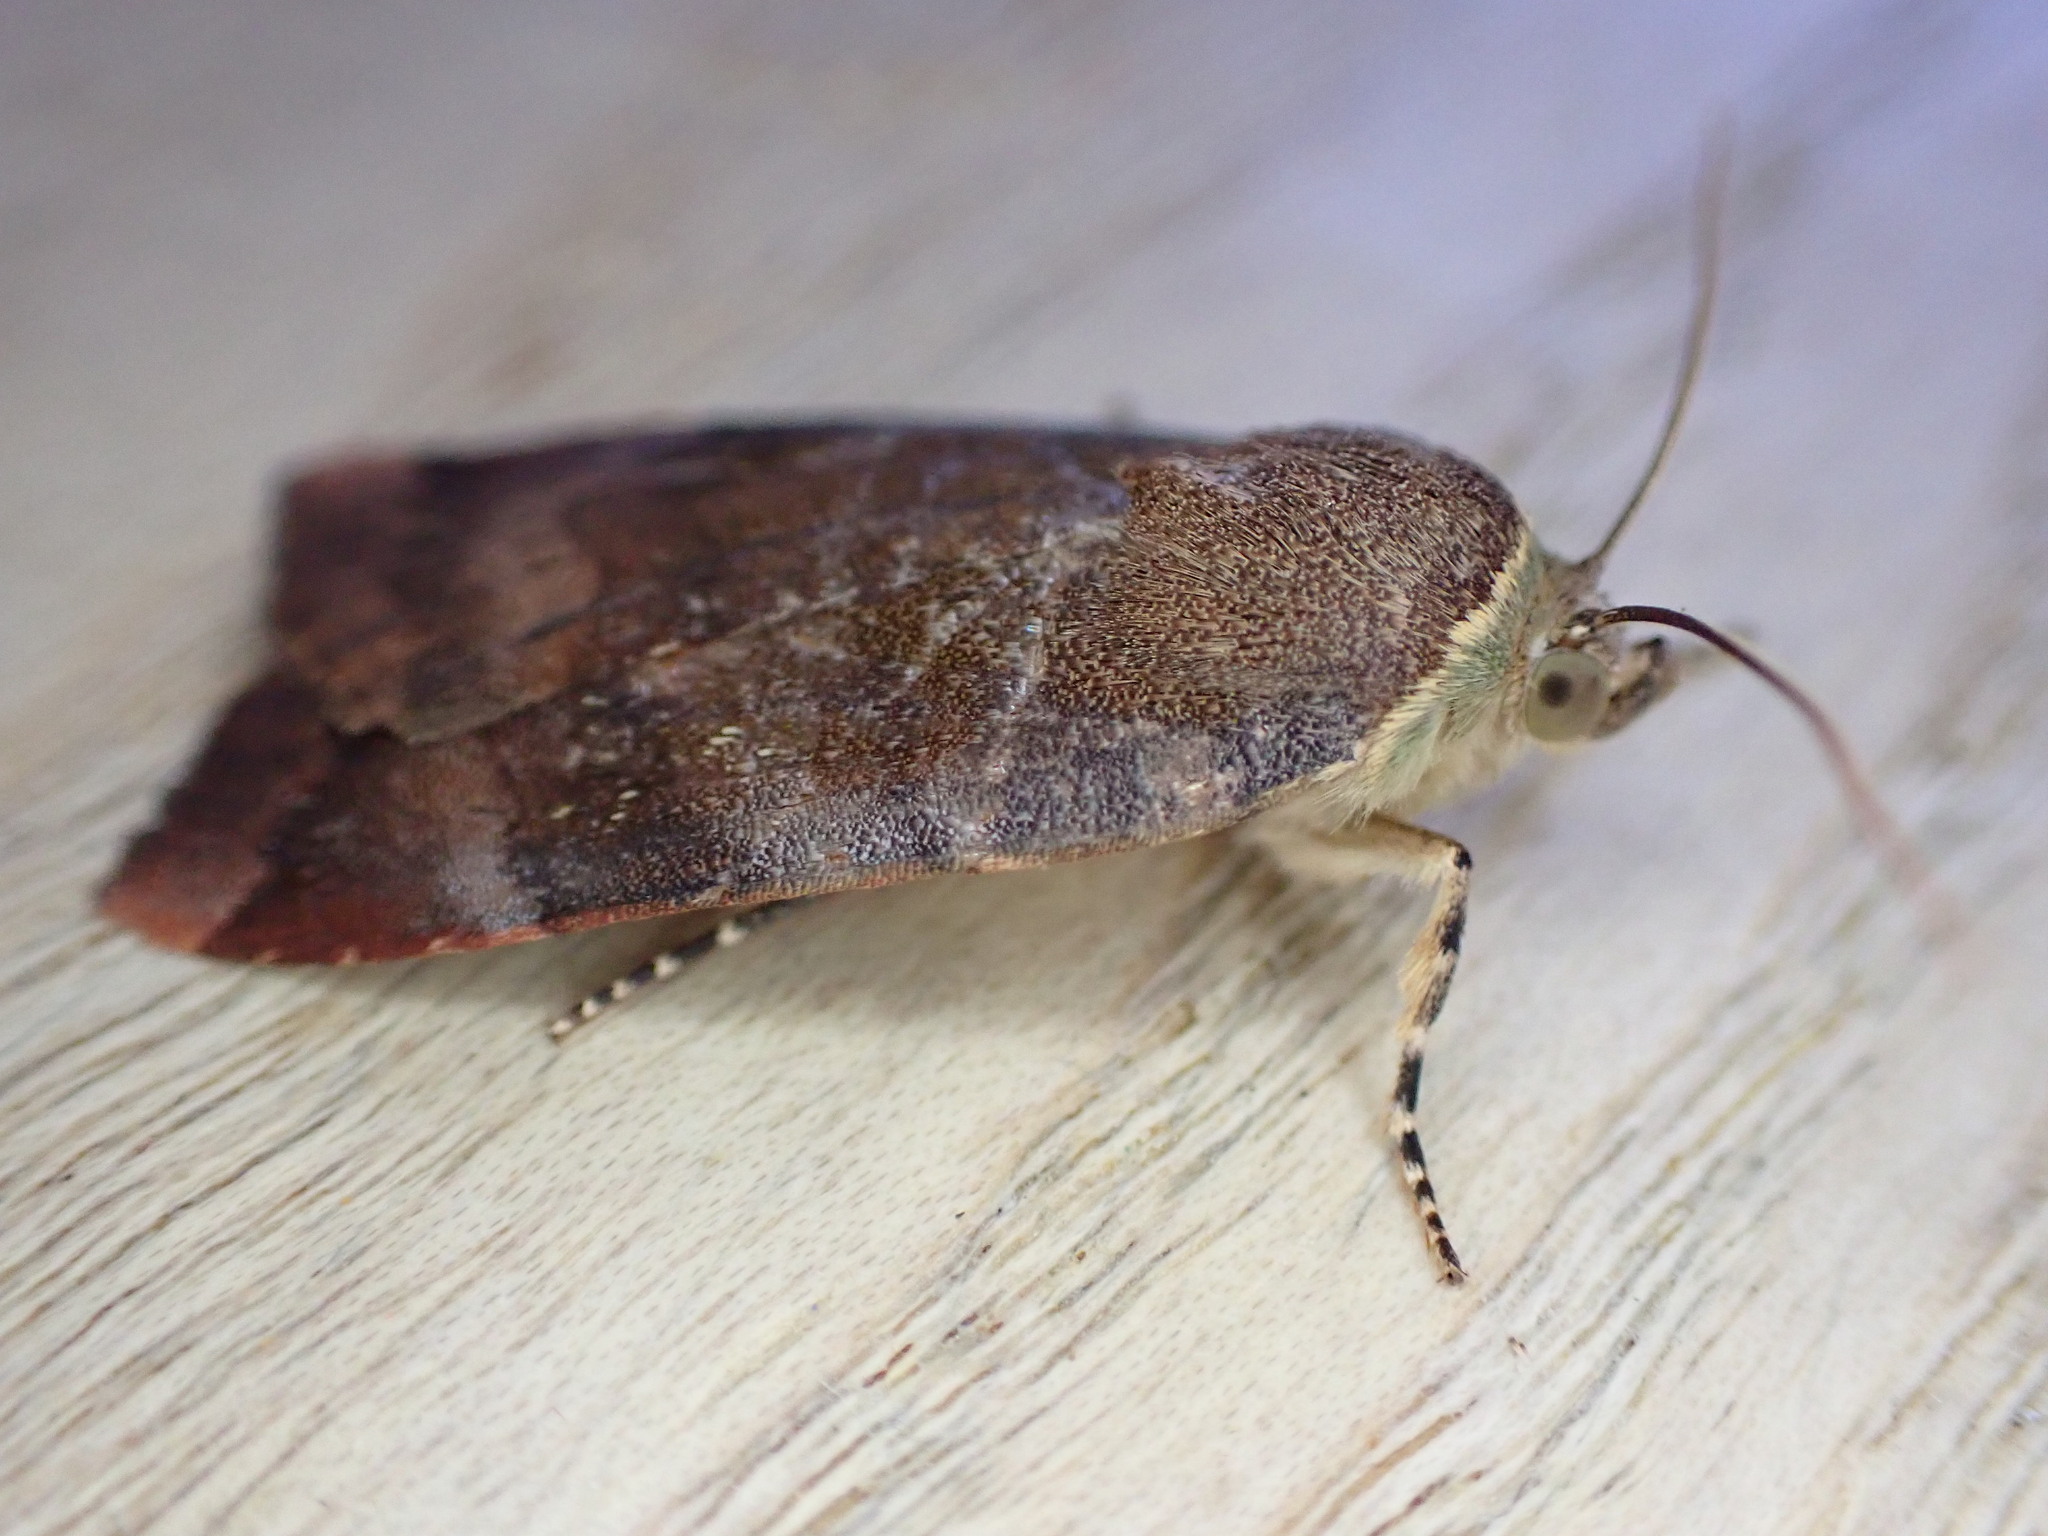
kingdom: Animalia
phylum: Arthropoda
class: Insecta
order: Lepidoptera
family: Noctuidae
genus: Noctua
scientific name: Noctua janthe
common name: Lesser broad-bordered yellow underwing
